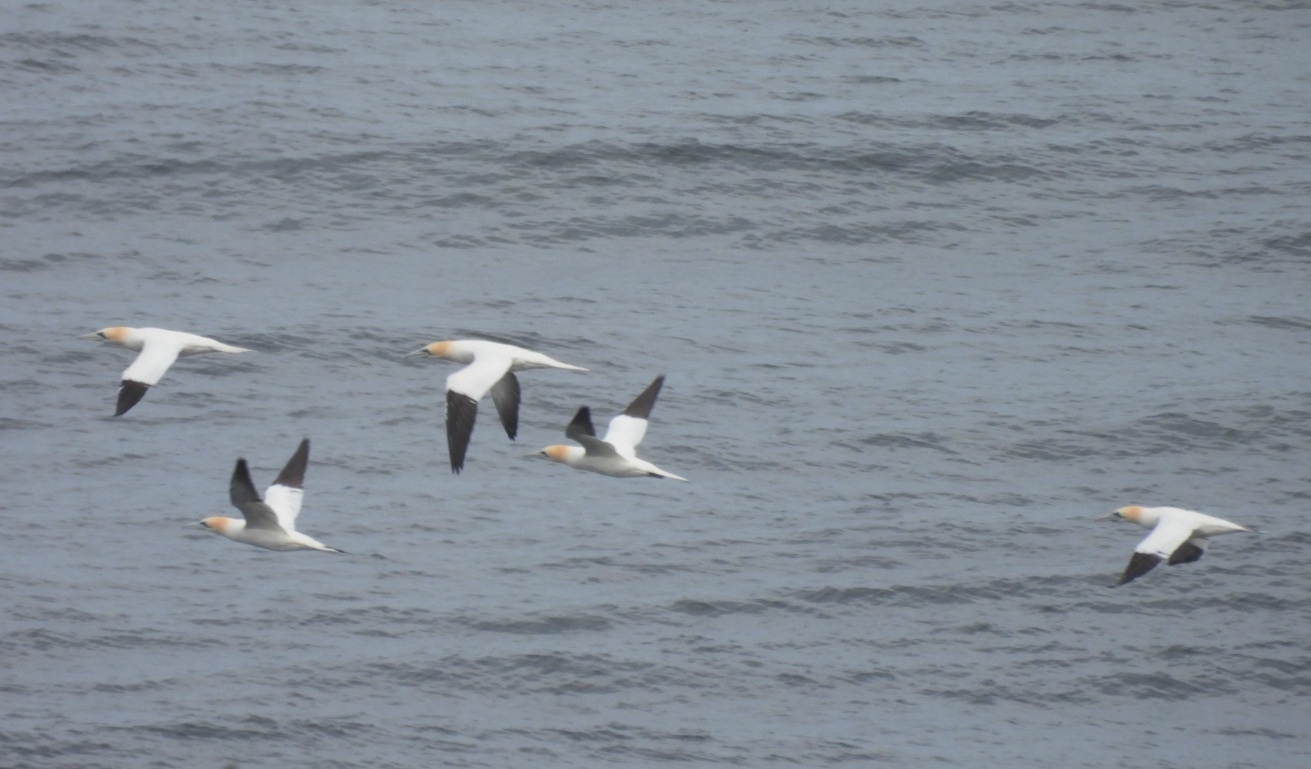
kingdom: Animalia
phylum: Chordata
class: Aves
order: Suliformes
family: Sulidae
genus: Morus
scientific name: Morus bassanus
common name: Northern gannet
